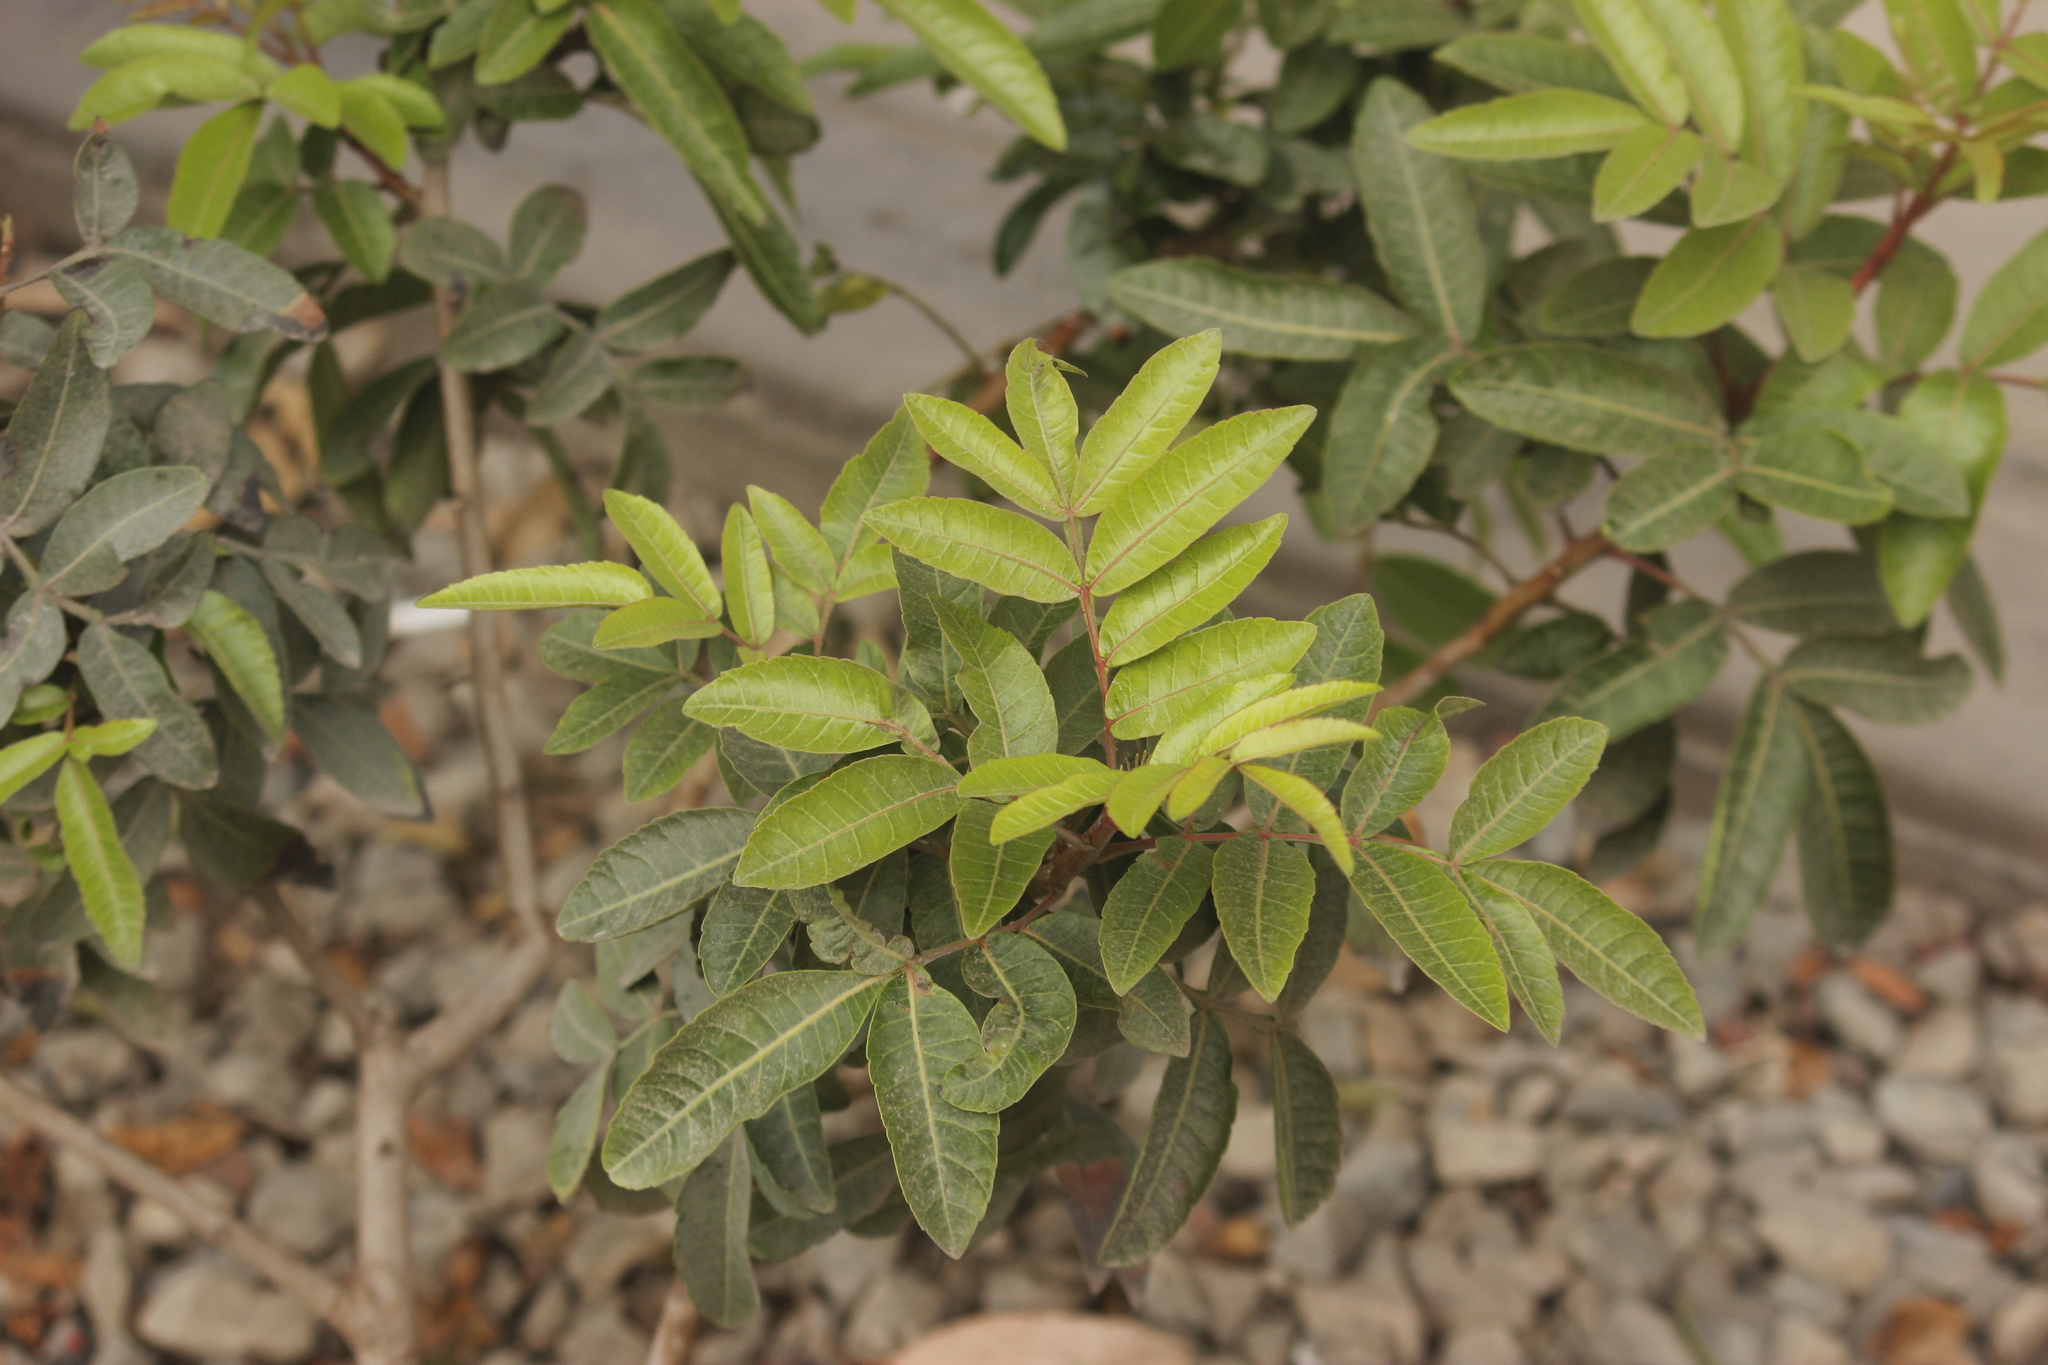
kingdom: Plantae
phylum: Tracheophyta
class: Magnoliopsida
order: Sapindales
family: Anacardiaceae
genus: Schinus
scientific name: Schinus terebinthifolia
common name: Brazilian peppertree
